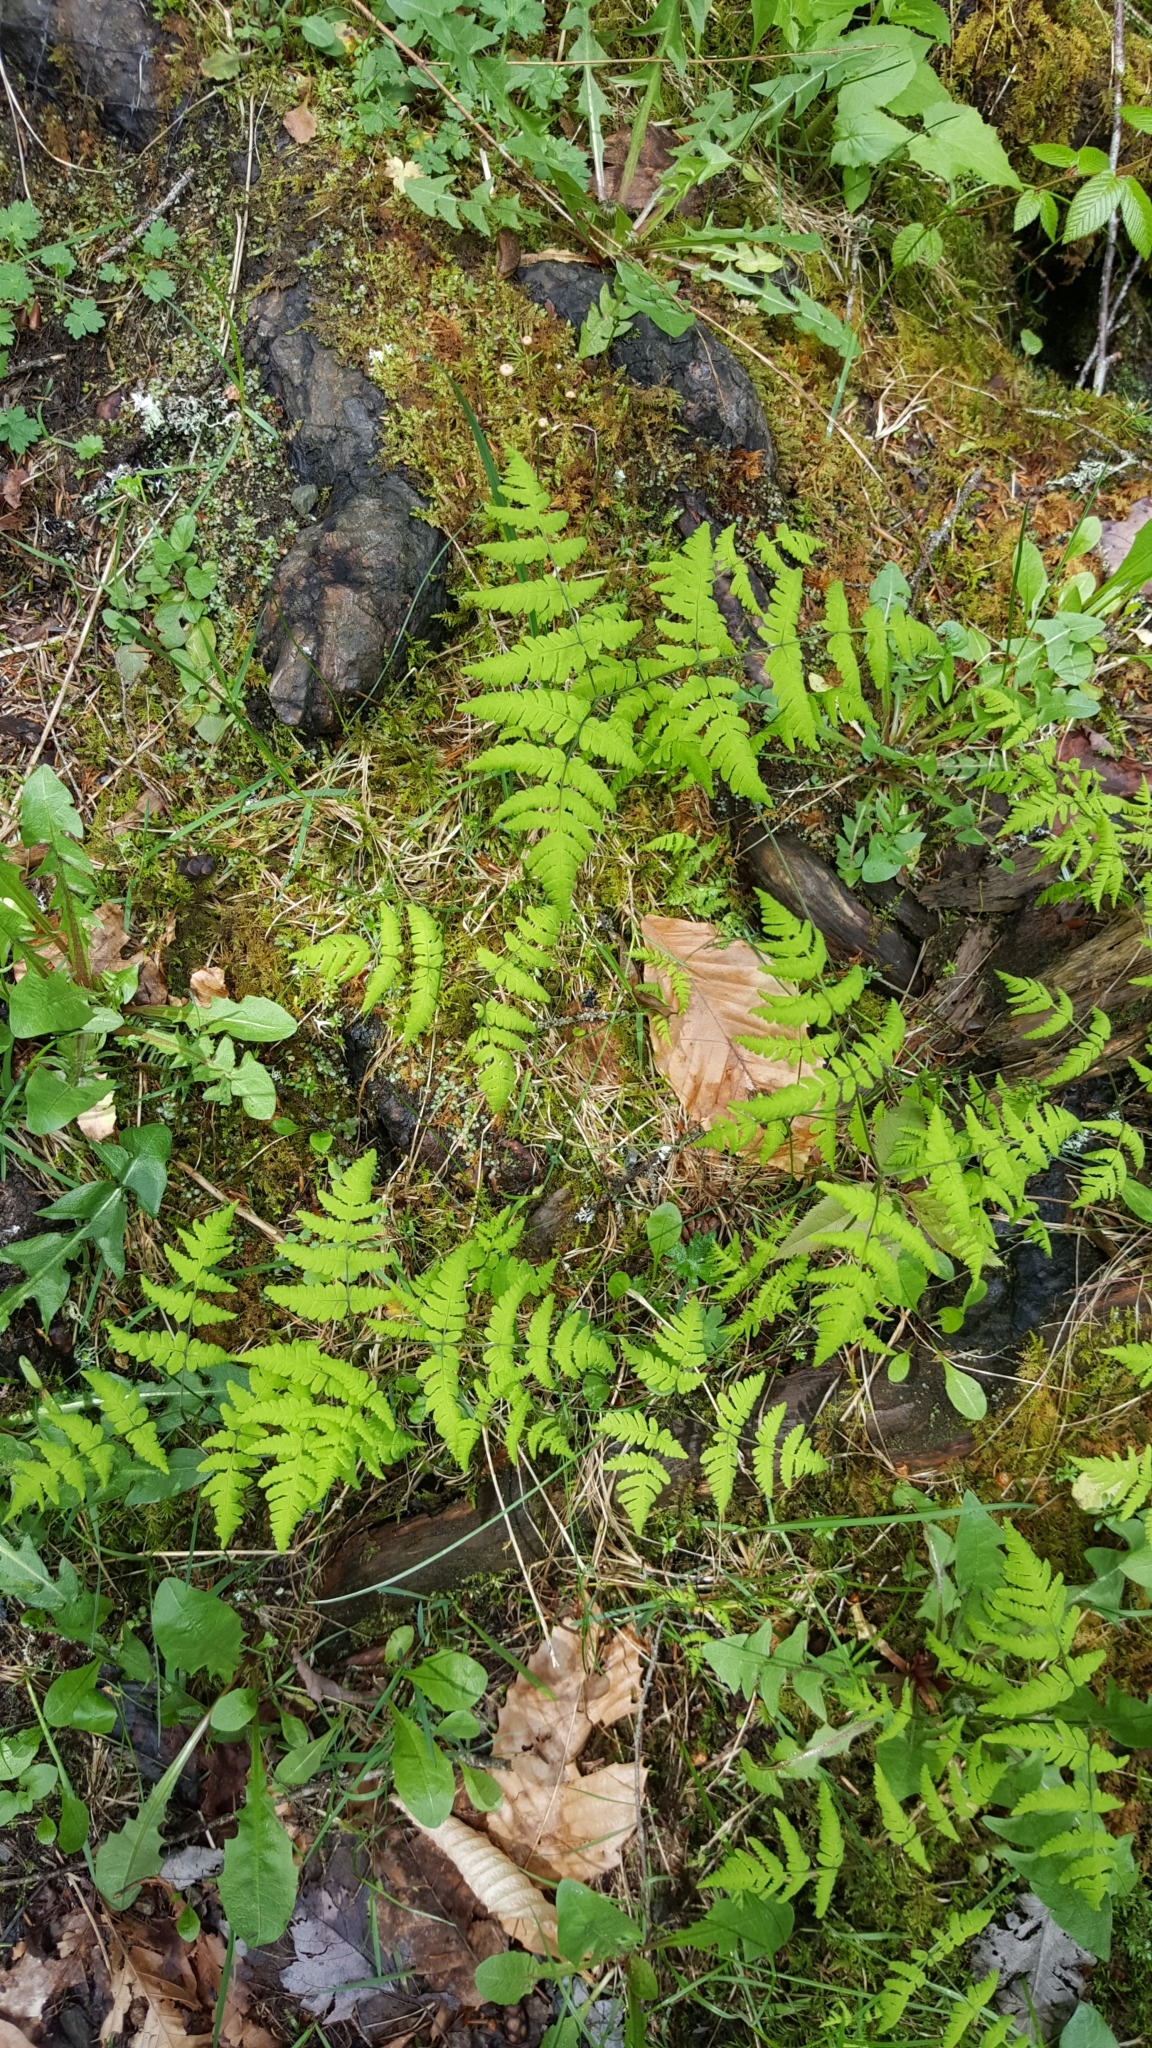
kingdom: Plantae
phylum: Tracheophyta
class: Polypodiopsida
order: Polypodiales
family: Cystopteridaceae
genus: Gymnocarpium
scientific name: Gymnocarpium dryopteris
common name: Oak fern
